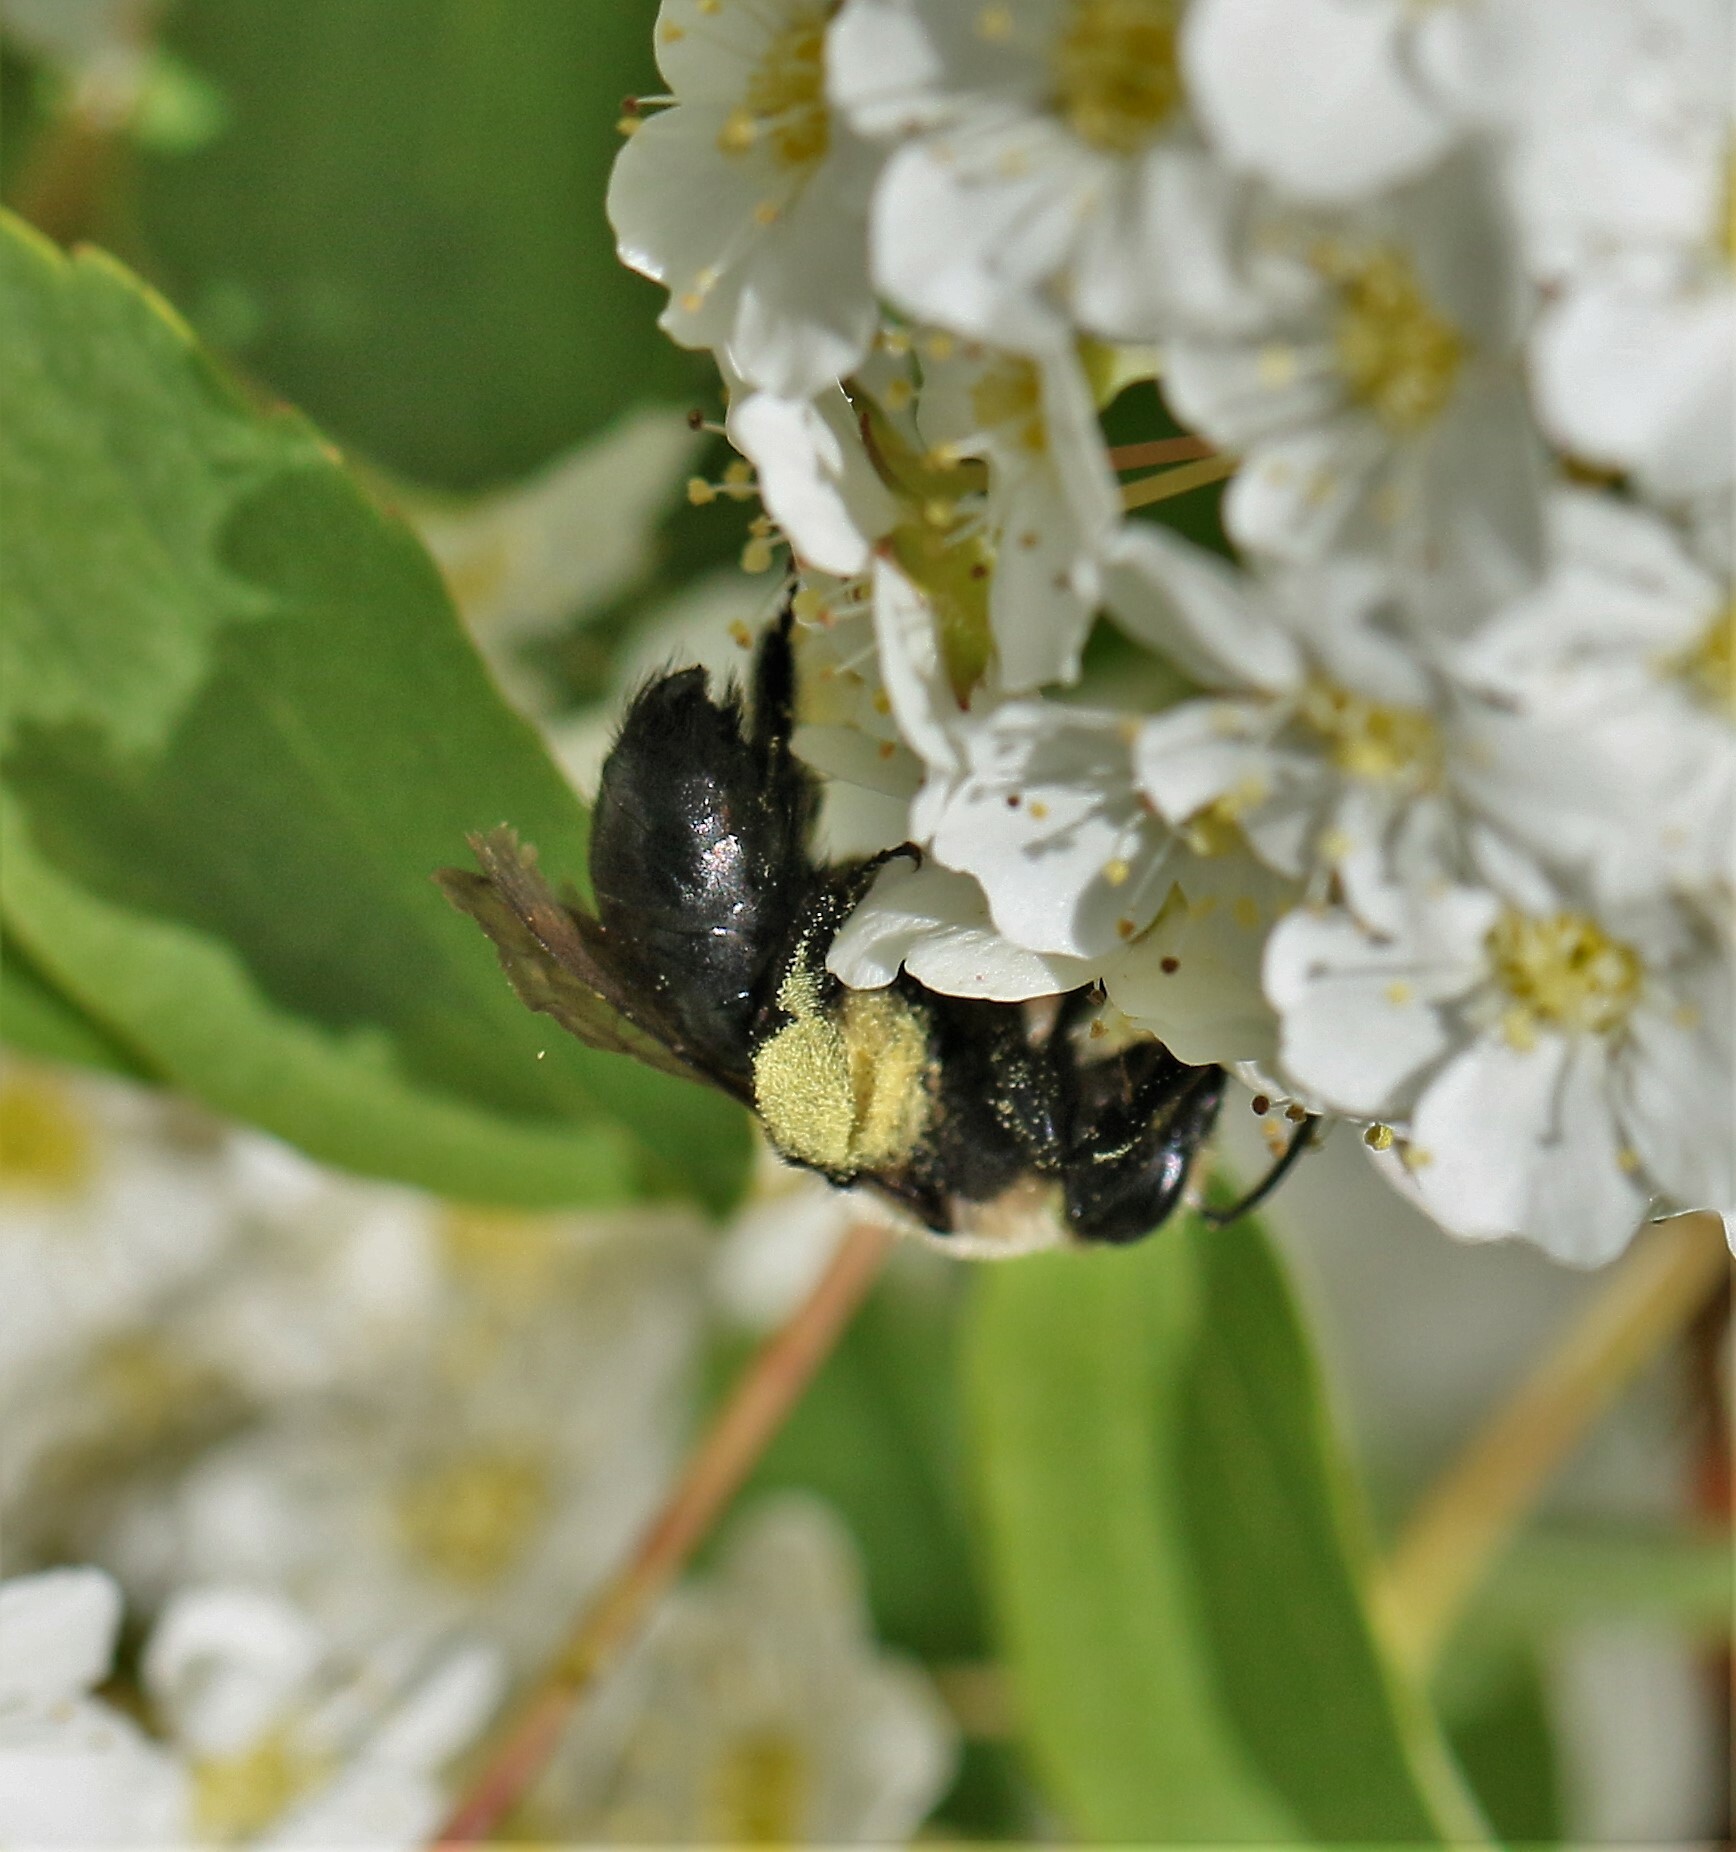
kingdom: Animalia
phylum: Arthropoda
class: Insecta
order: Hymenoptera
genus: Melandrena
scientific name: Melandrena
